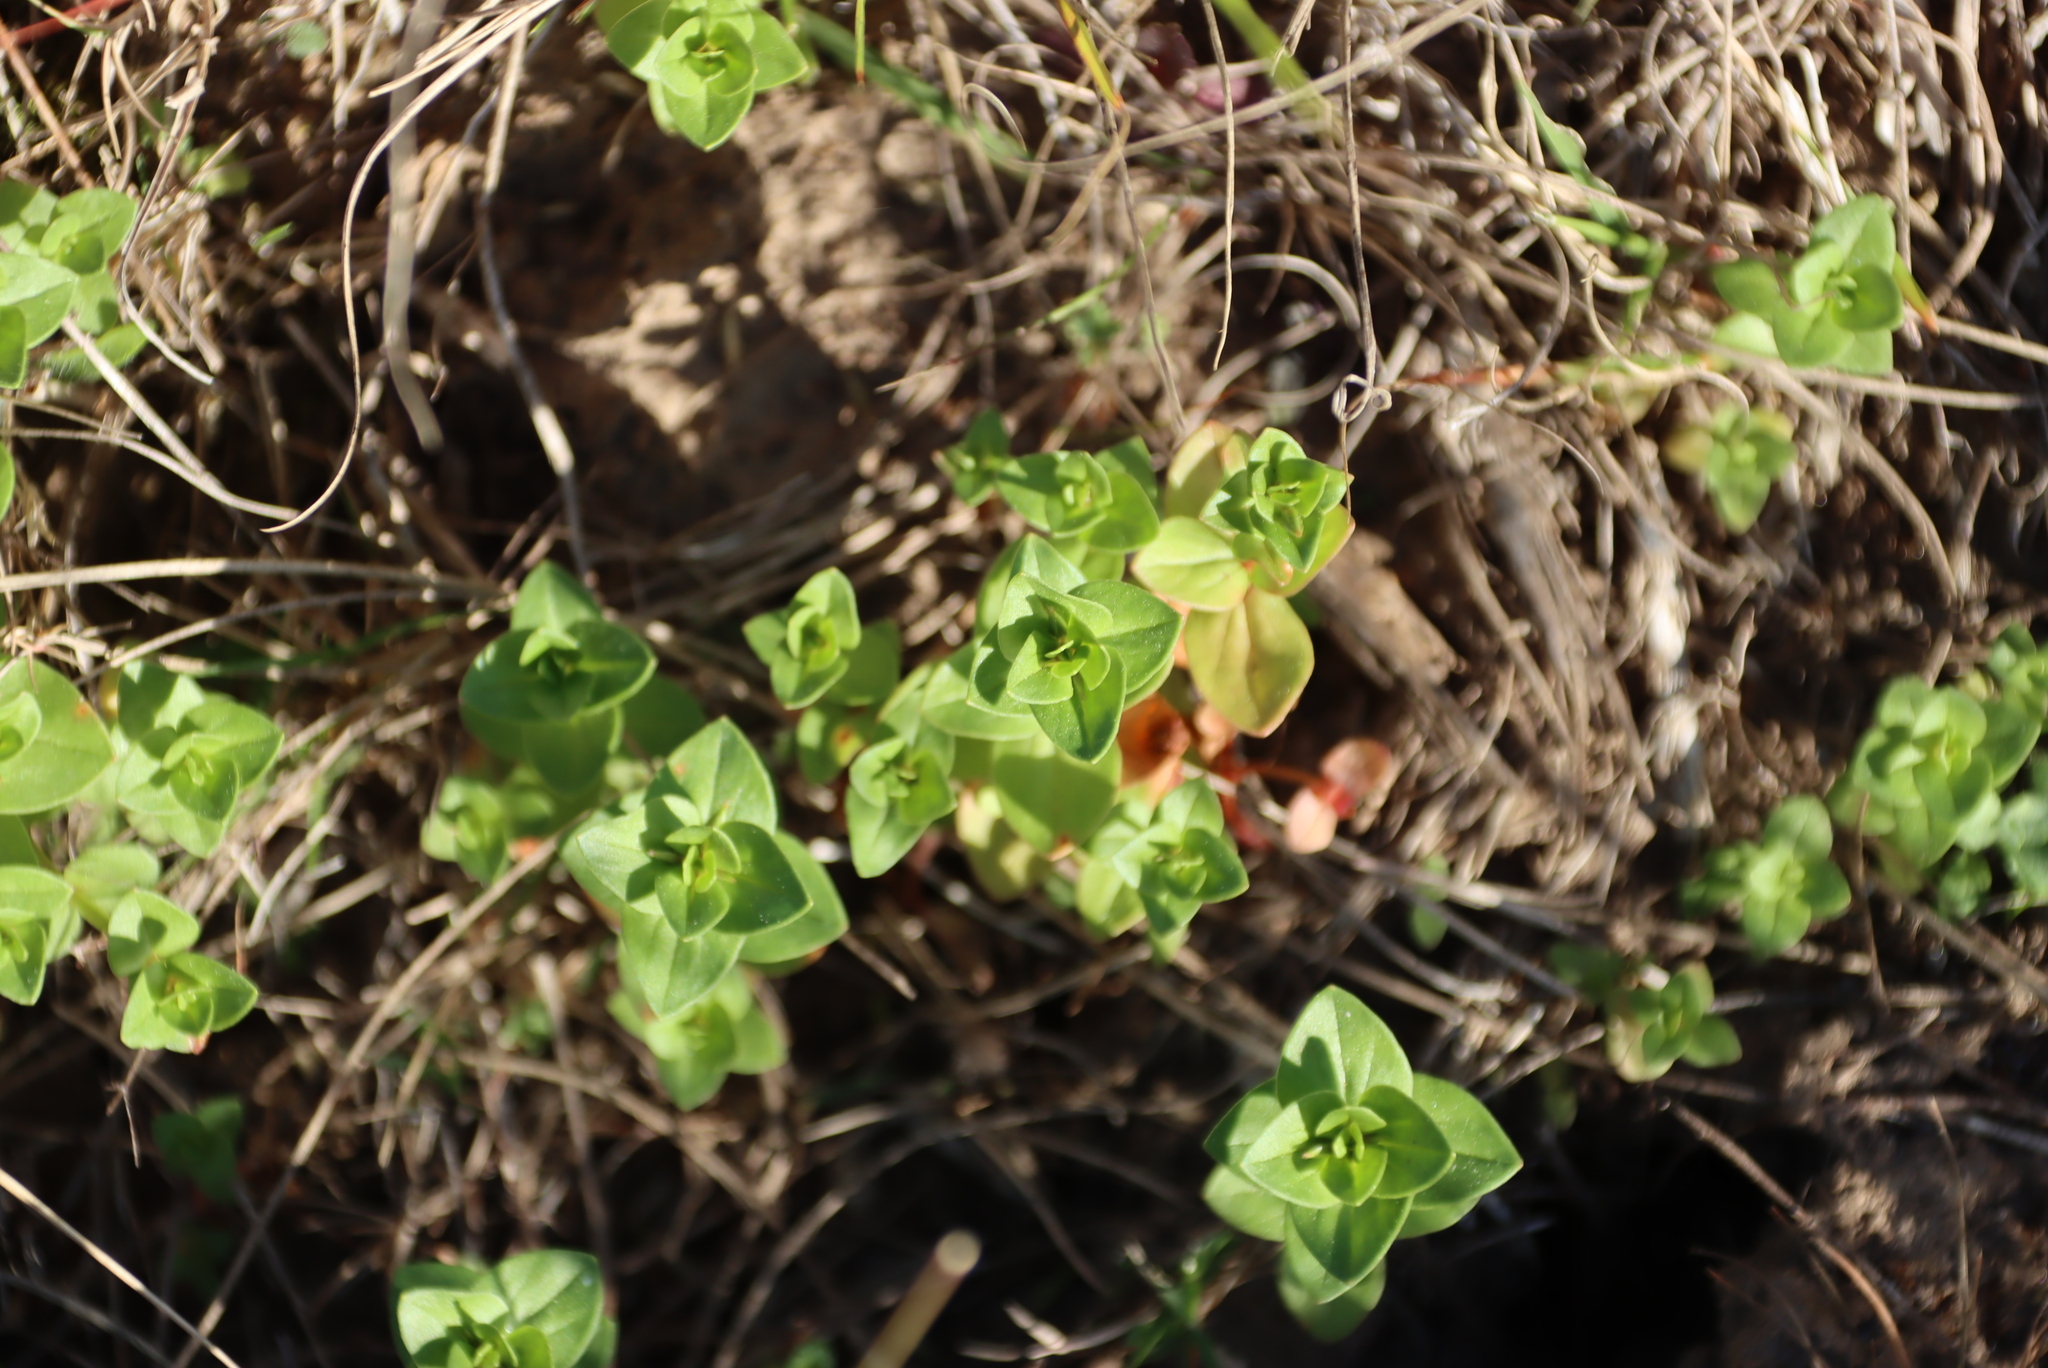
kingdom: Plantae
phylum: Tracheophyta
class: Magnoliopsida
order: Ericales
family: Primulaceae
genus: Lysimachia
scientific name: Lysimachia arvensis
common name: Scarlet pimpernel
